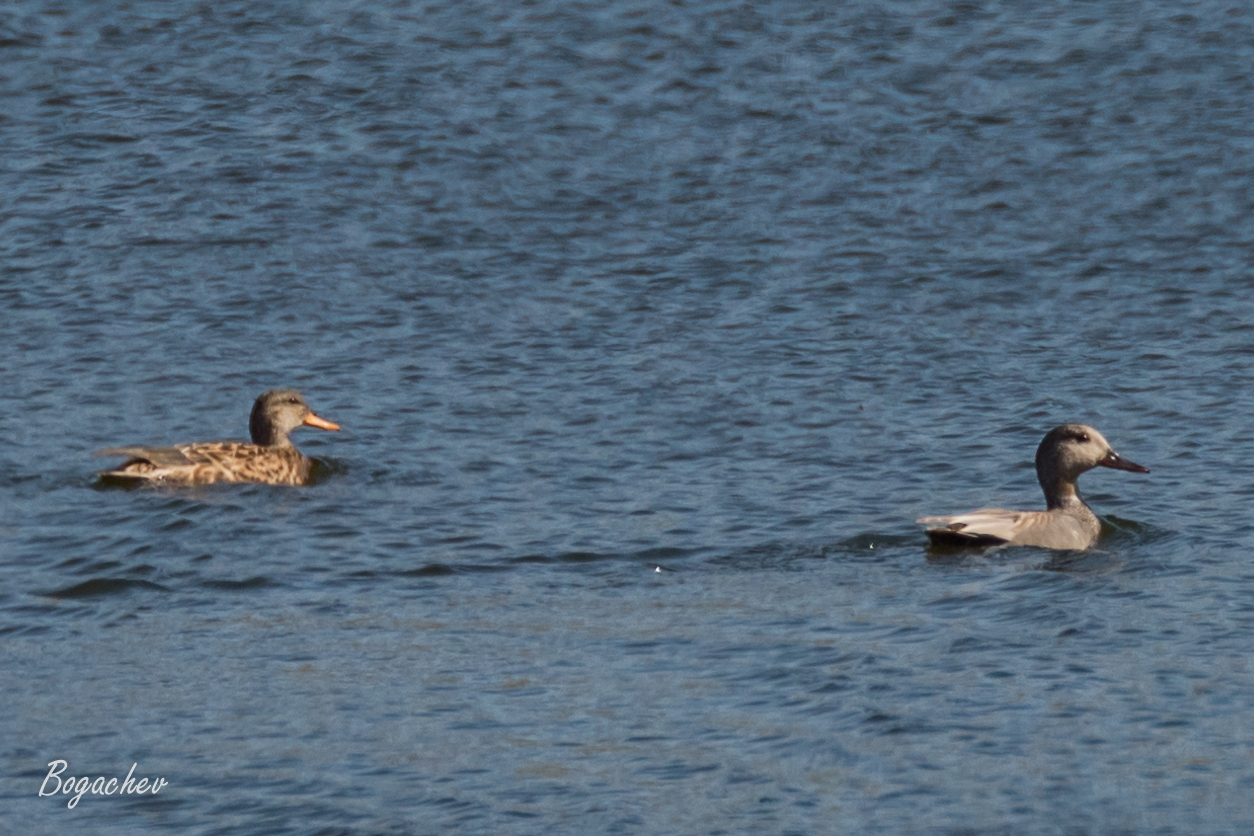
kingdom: Animalia
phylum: Chordata
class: Aves
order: Anseriformes
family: Anatidae
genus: Mareca
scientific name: Mareca strepera
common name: Gadwall
